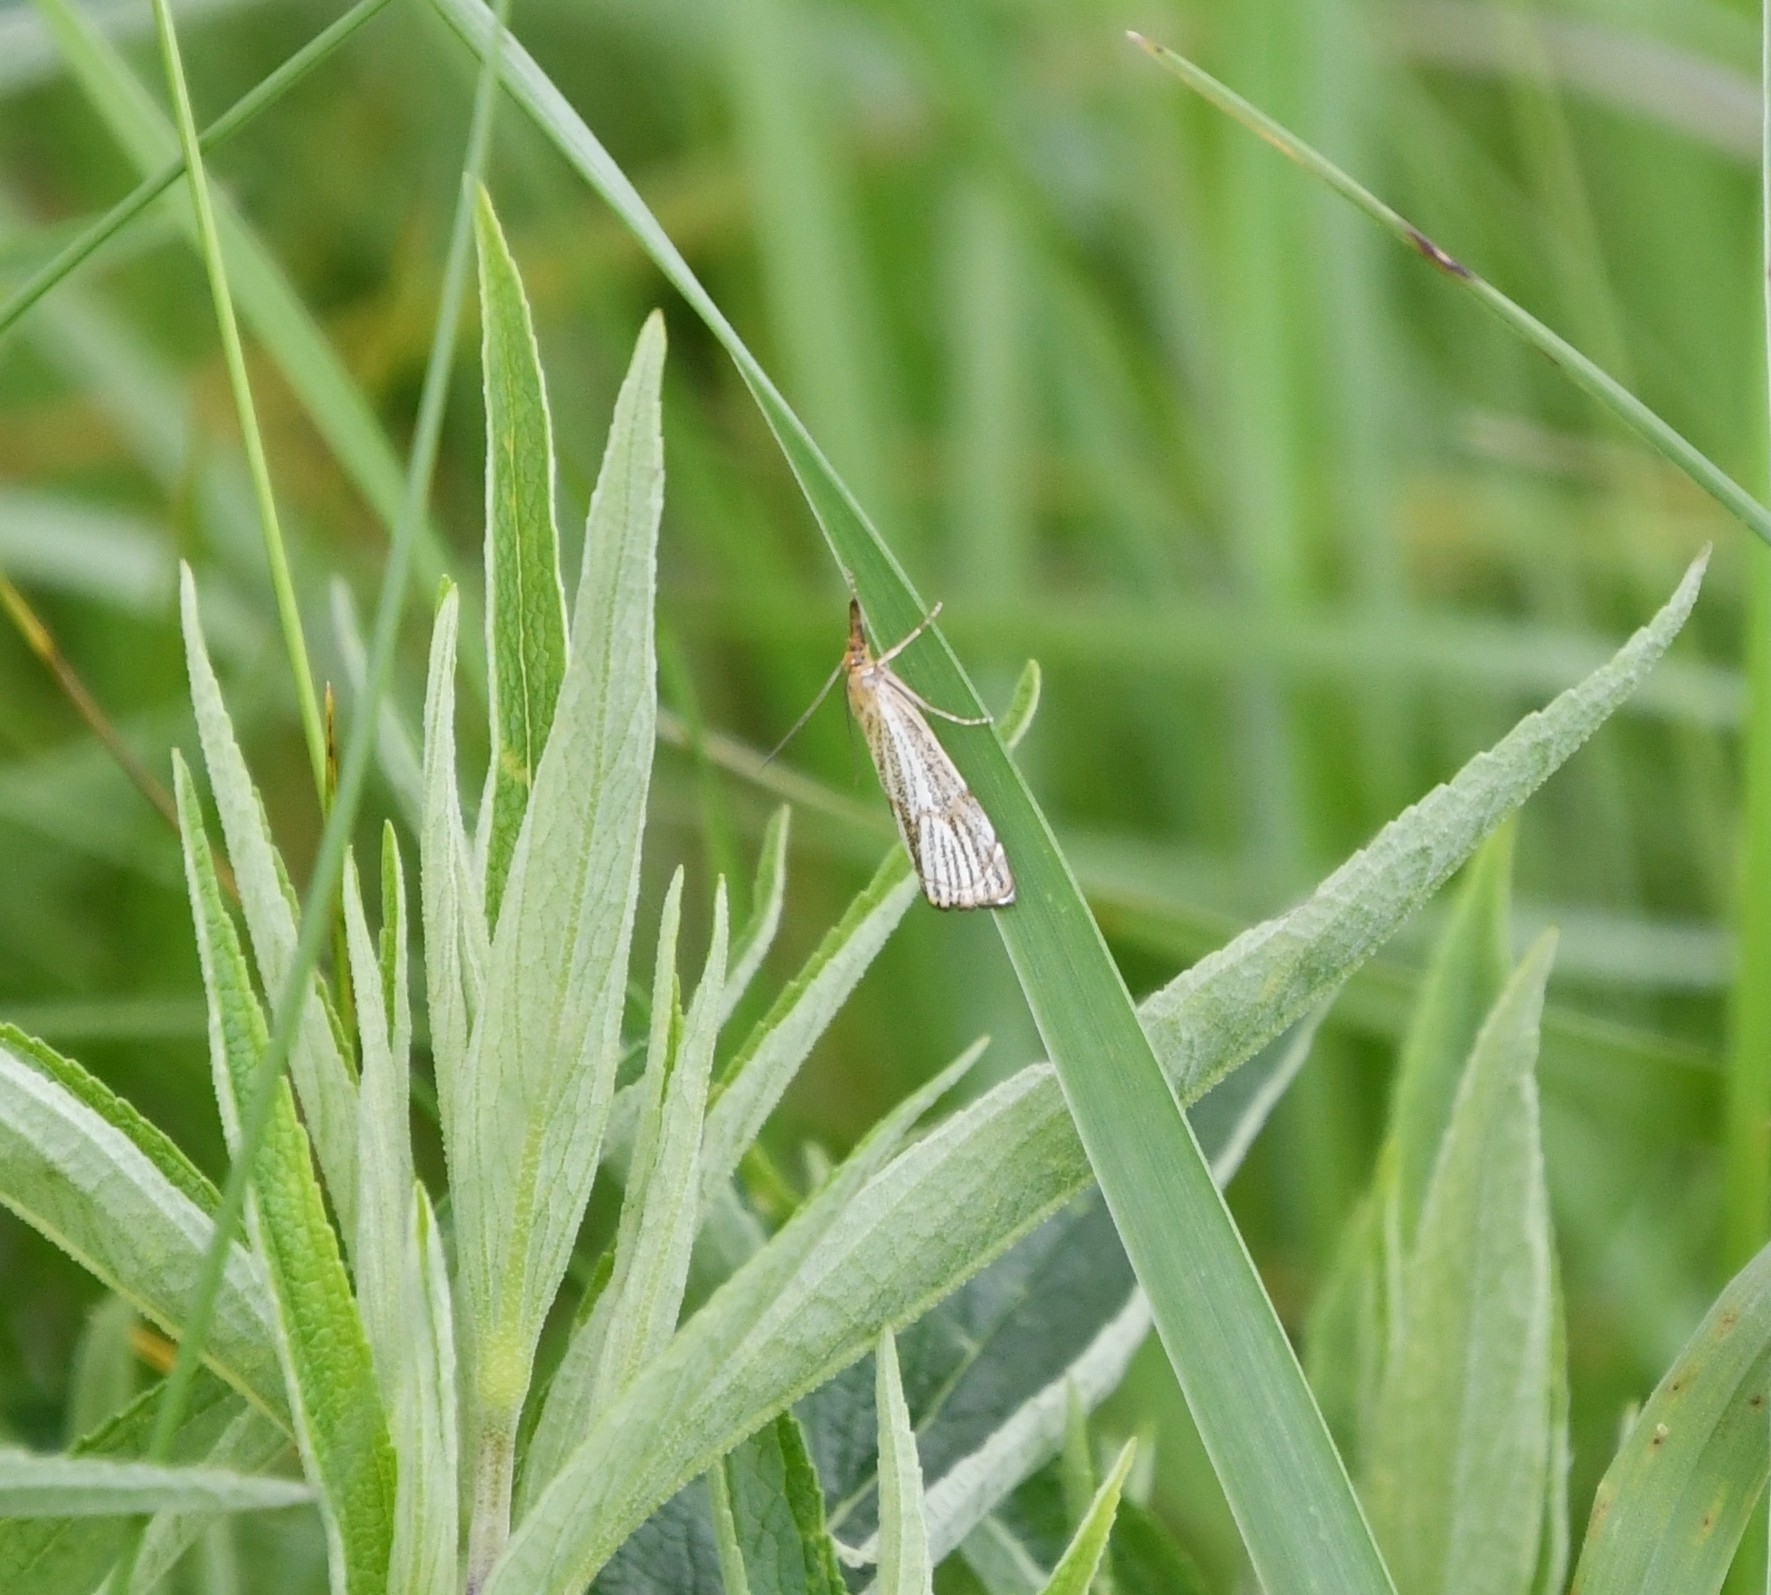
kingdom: Animalia
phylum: Arthropoda
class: Insecta
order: Lepidoptera
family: Crambidae
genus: Chrysocrambus
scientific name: Chrysocrambus linetella
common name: Orange-bar grass-veneer
